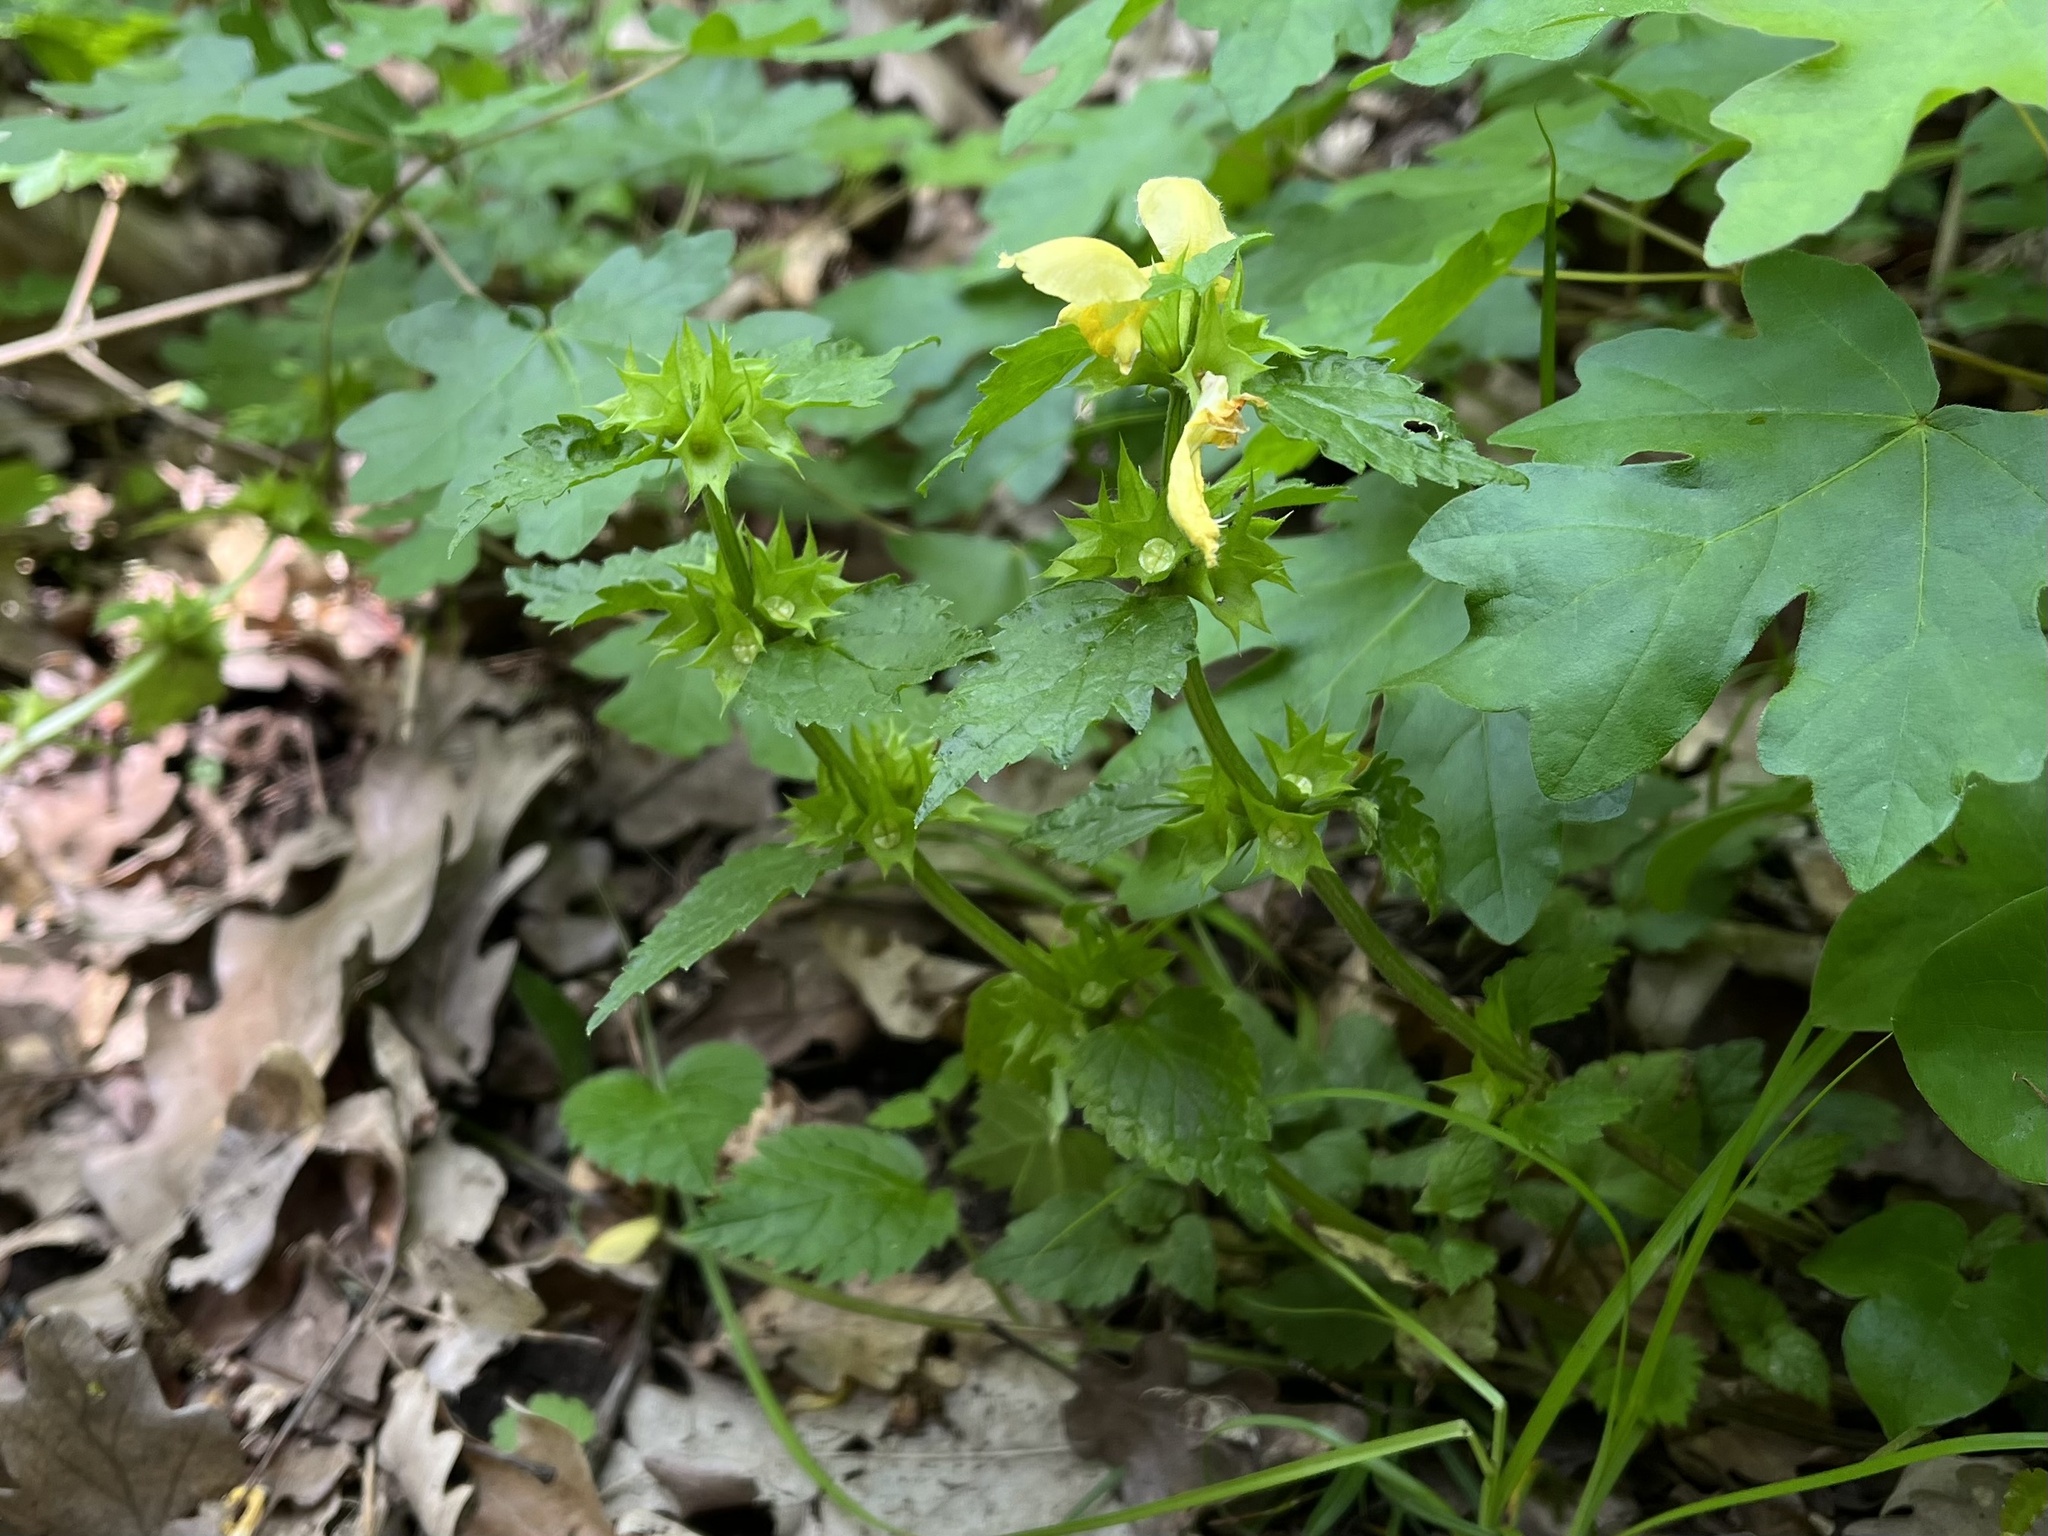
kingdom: Plantae
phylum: Tracheophyta
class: Magnoliopsida
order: Lamiales
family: Lamiaceae
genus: Lamium
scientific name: Lamium galeobdolon
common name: Yellow archangel
